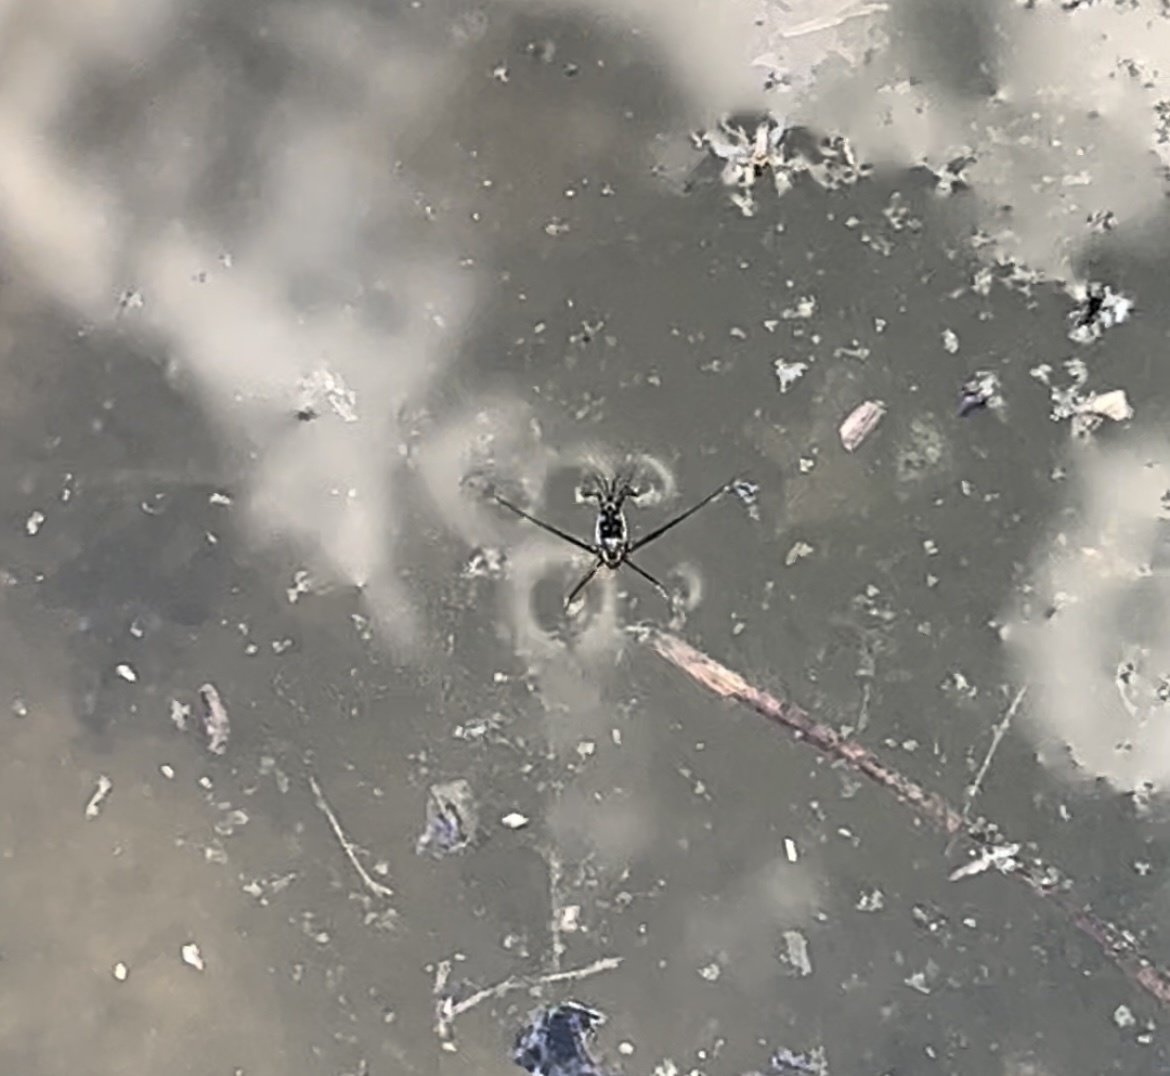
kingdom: Animalia
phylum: Arthropoda
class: Insecta
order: Hemiptera
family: Gerridae
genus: Trepobates
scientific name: Trepobates
